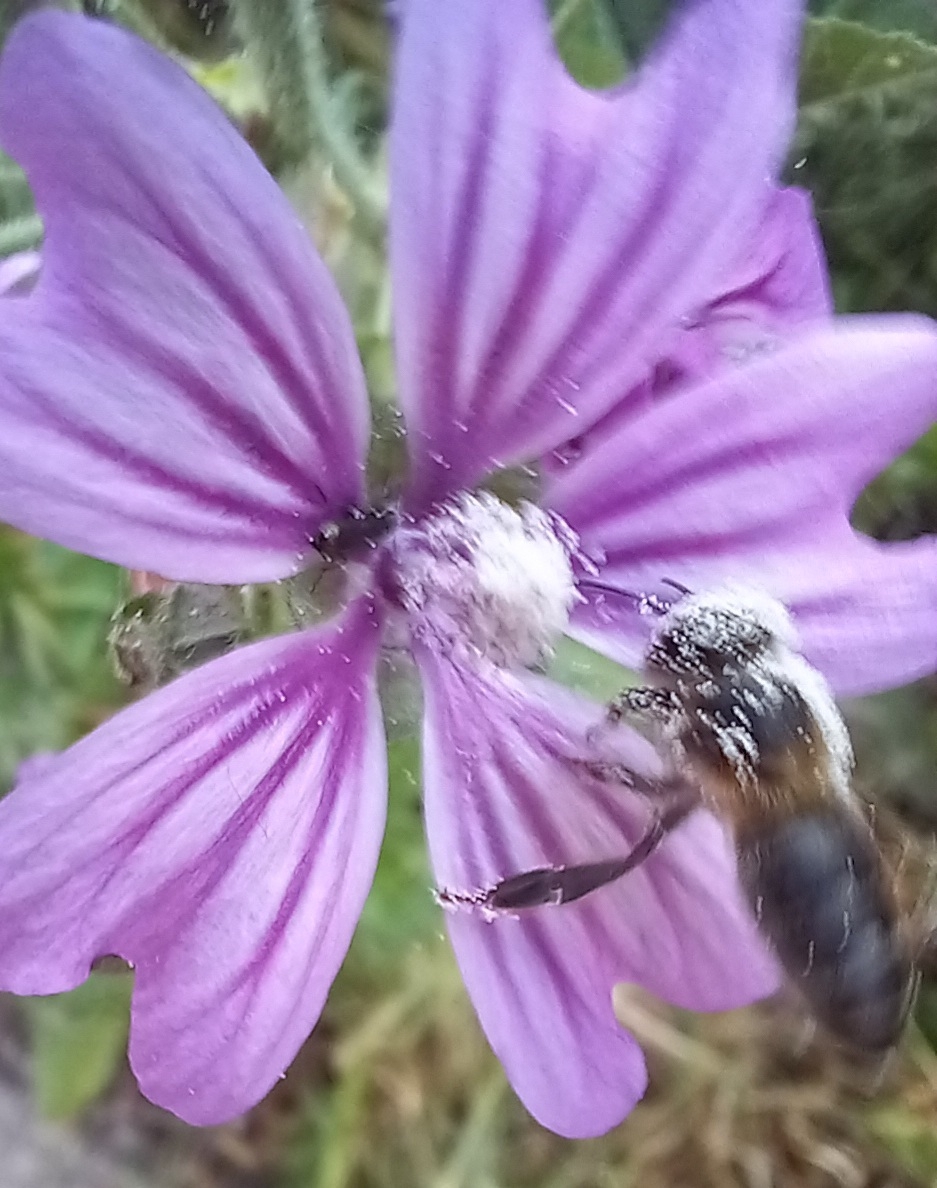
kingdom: Animalia
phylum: Arthropoda
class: Insecta
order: Hymenoptera
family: Apidae
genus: Apis
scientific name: Apis mellifera
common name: Honey bee
